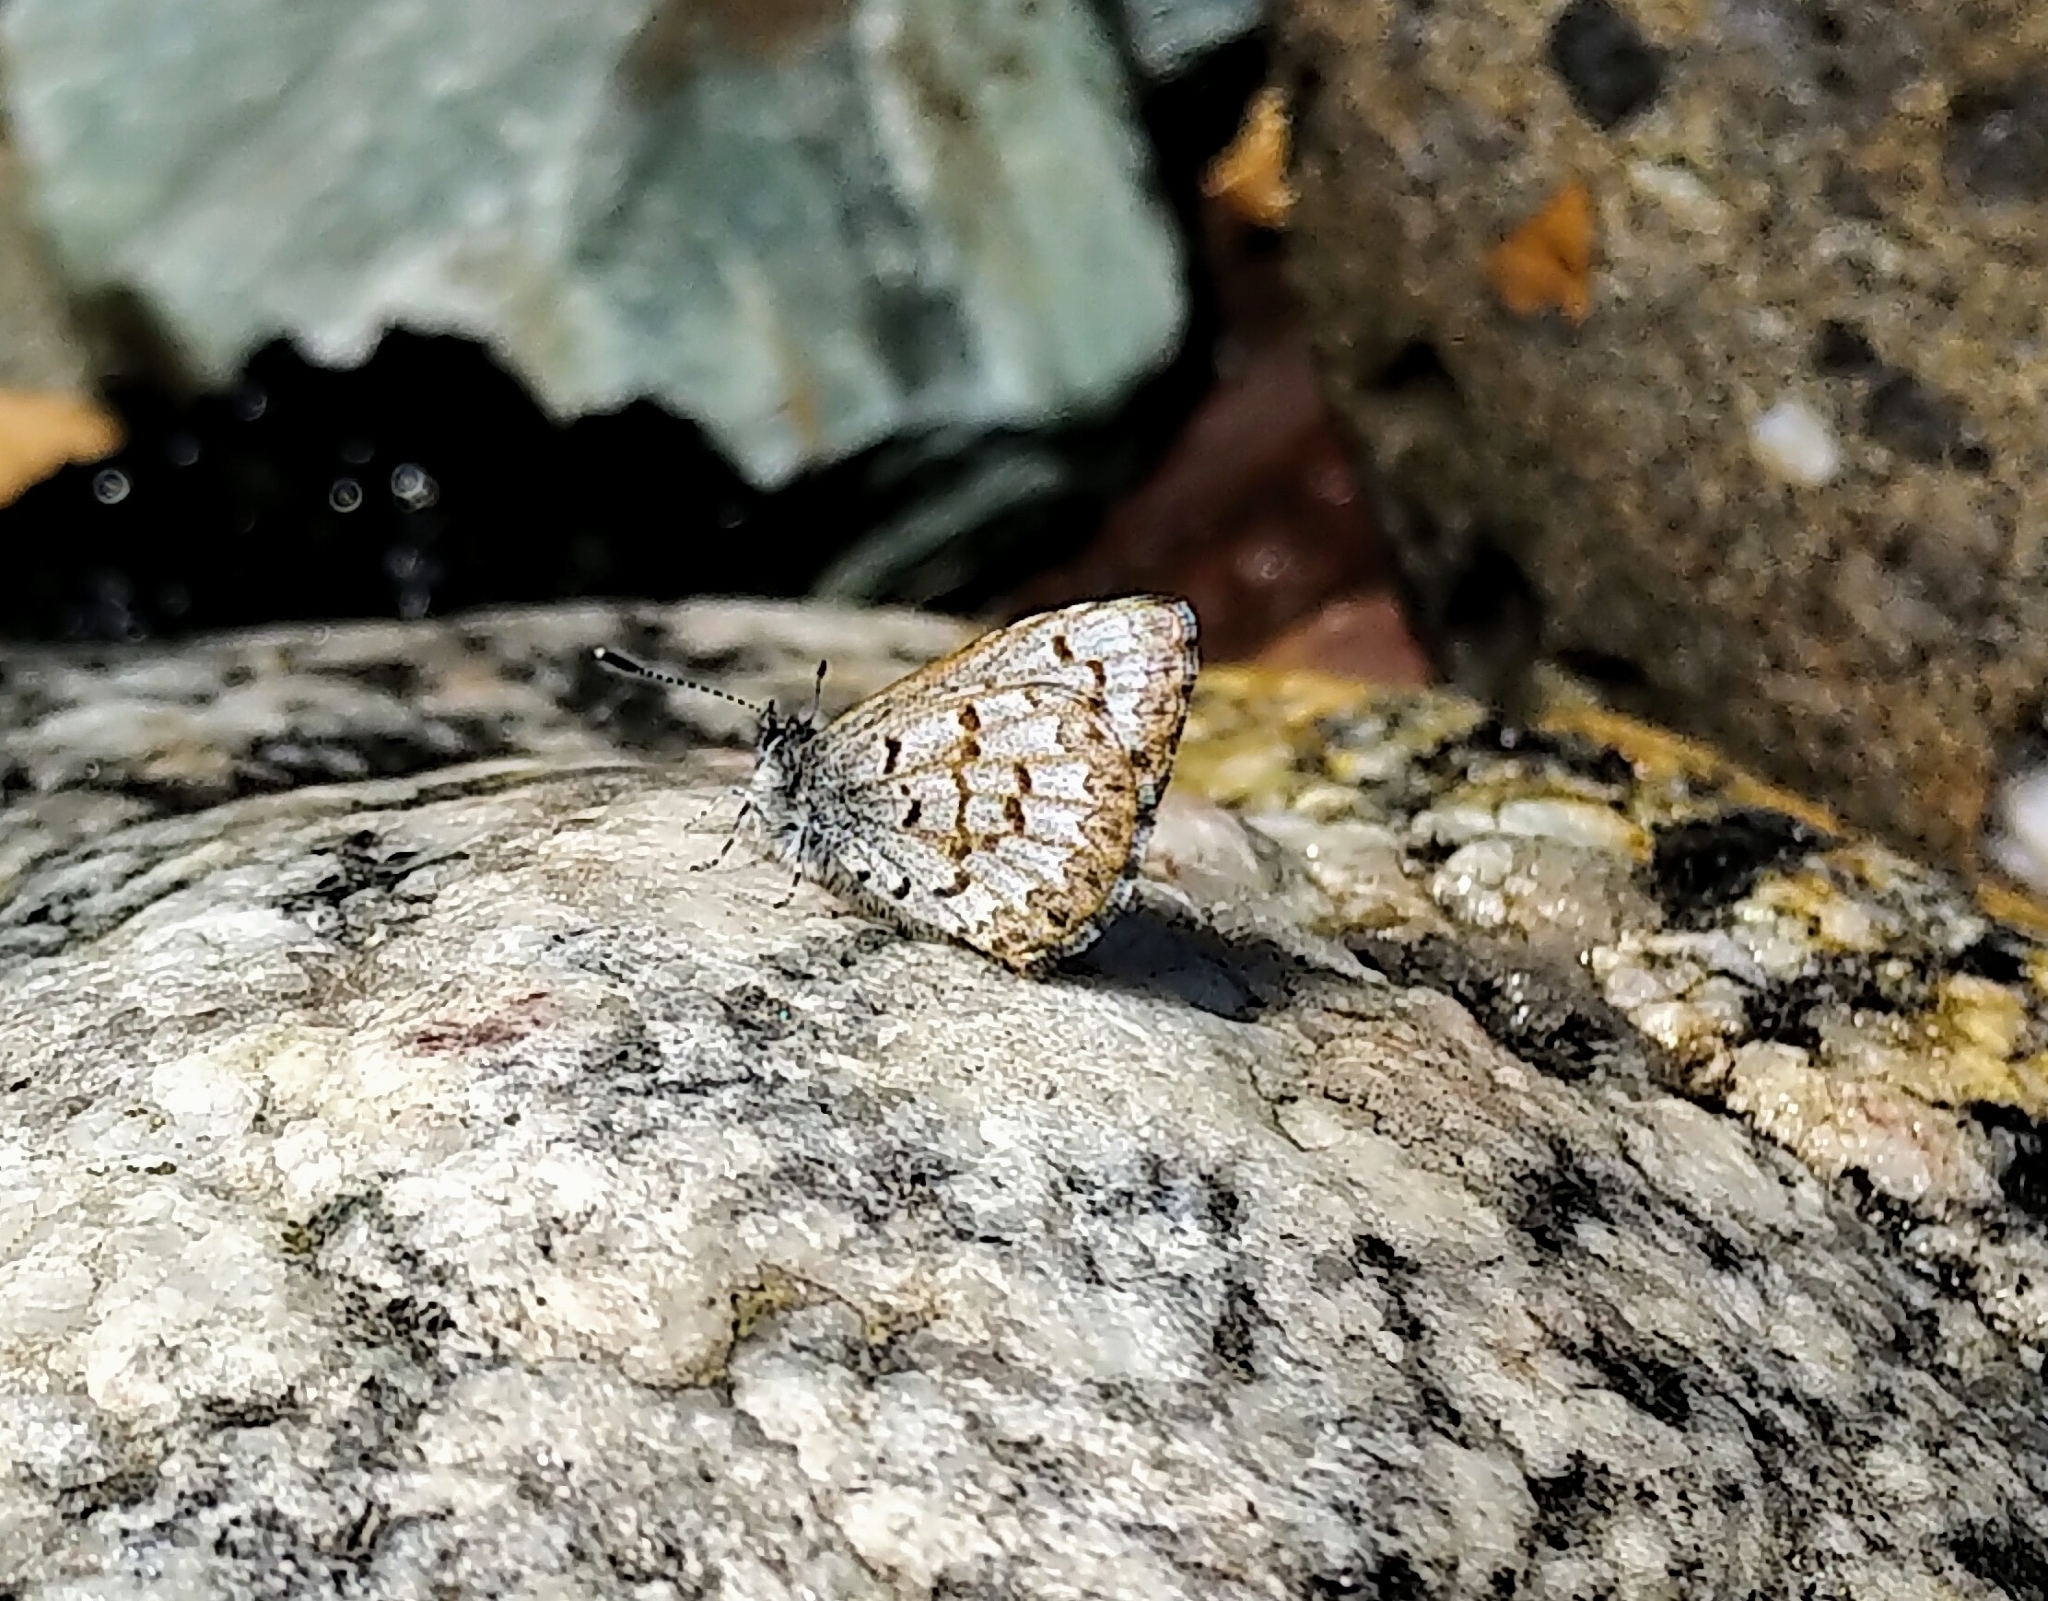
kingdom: Animalia
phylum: Arthropoda
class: Insecta
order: Lepidoptera
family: Lycaenidae
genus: Celastrina
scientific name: Celastrina lucia
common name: Lucia azure
